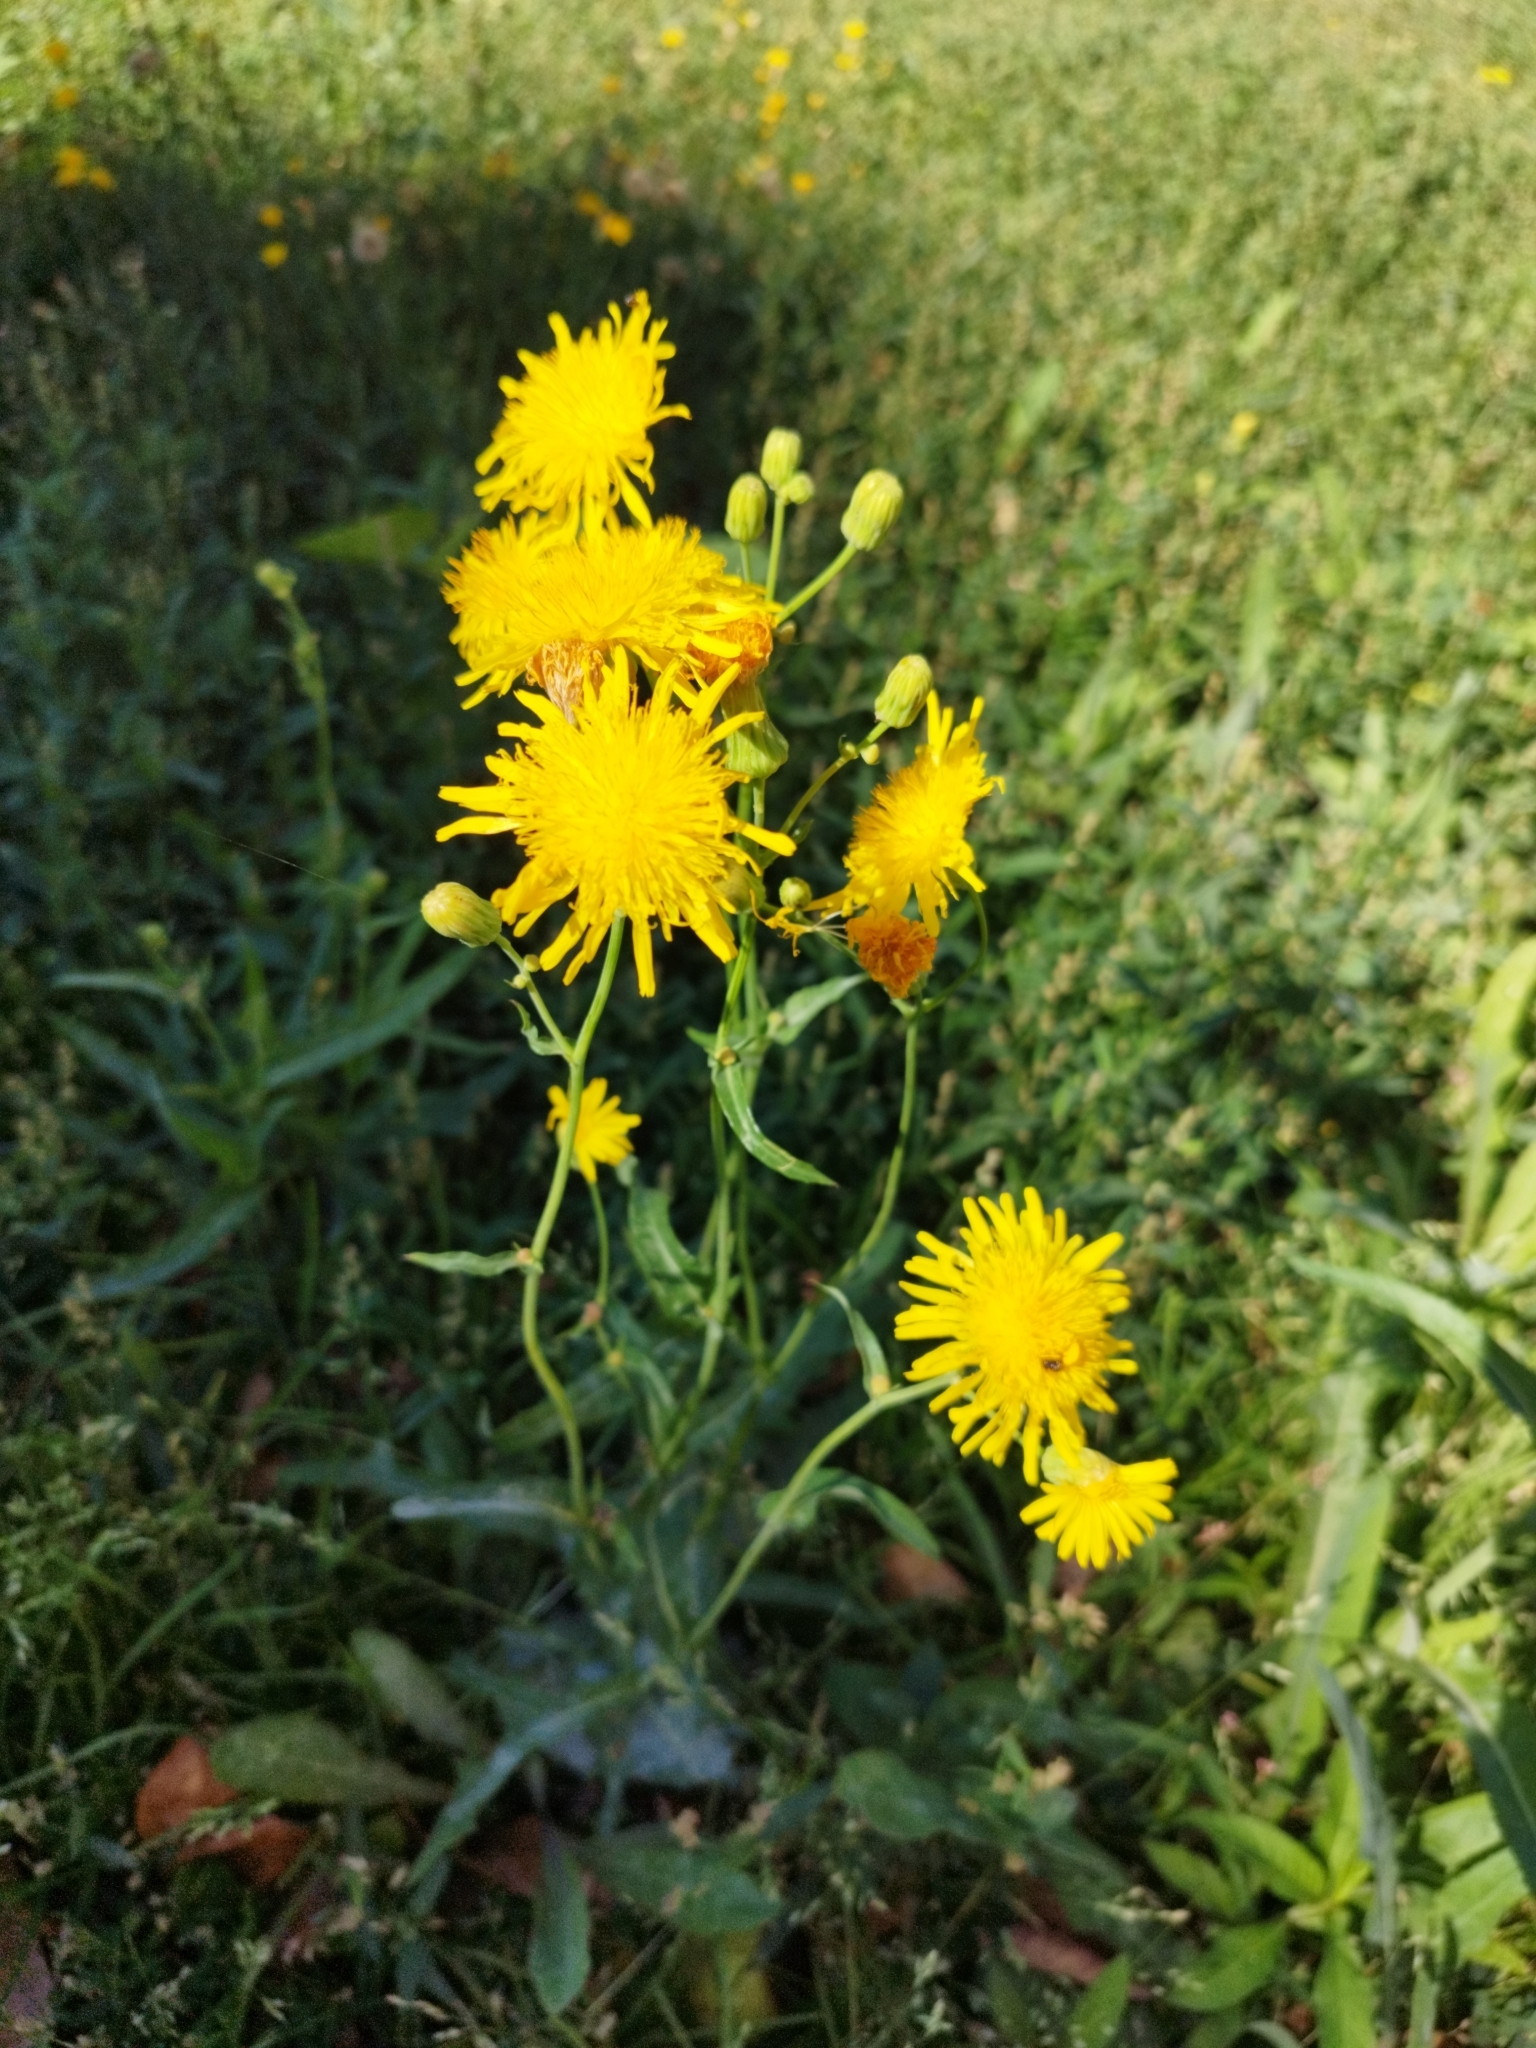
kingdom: Plantae
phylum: Tracheophyta
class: Magnoliopsida
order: Asterales
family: Asteraceae
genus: Sonchus
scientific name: Sonchus arvensis
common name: Perennial sow-thistle
